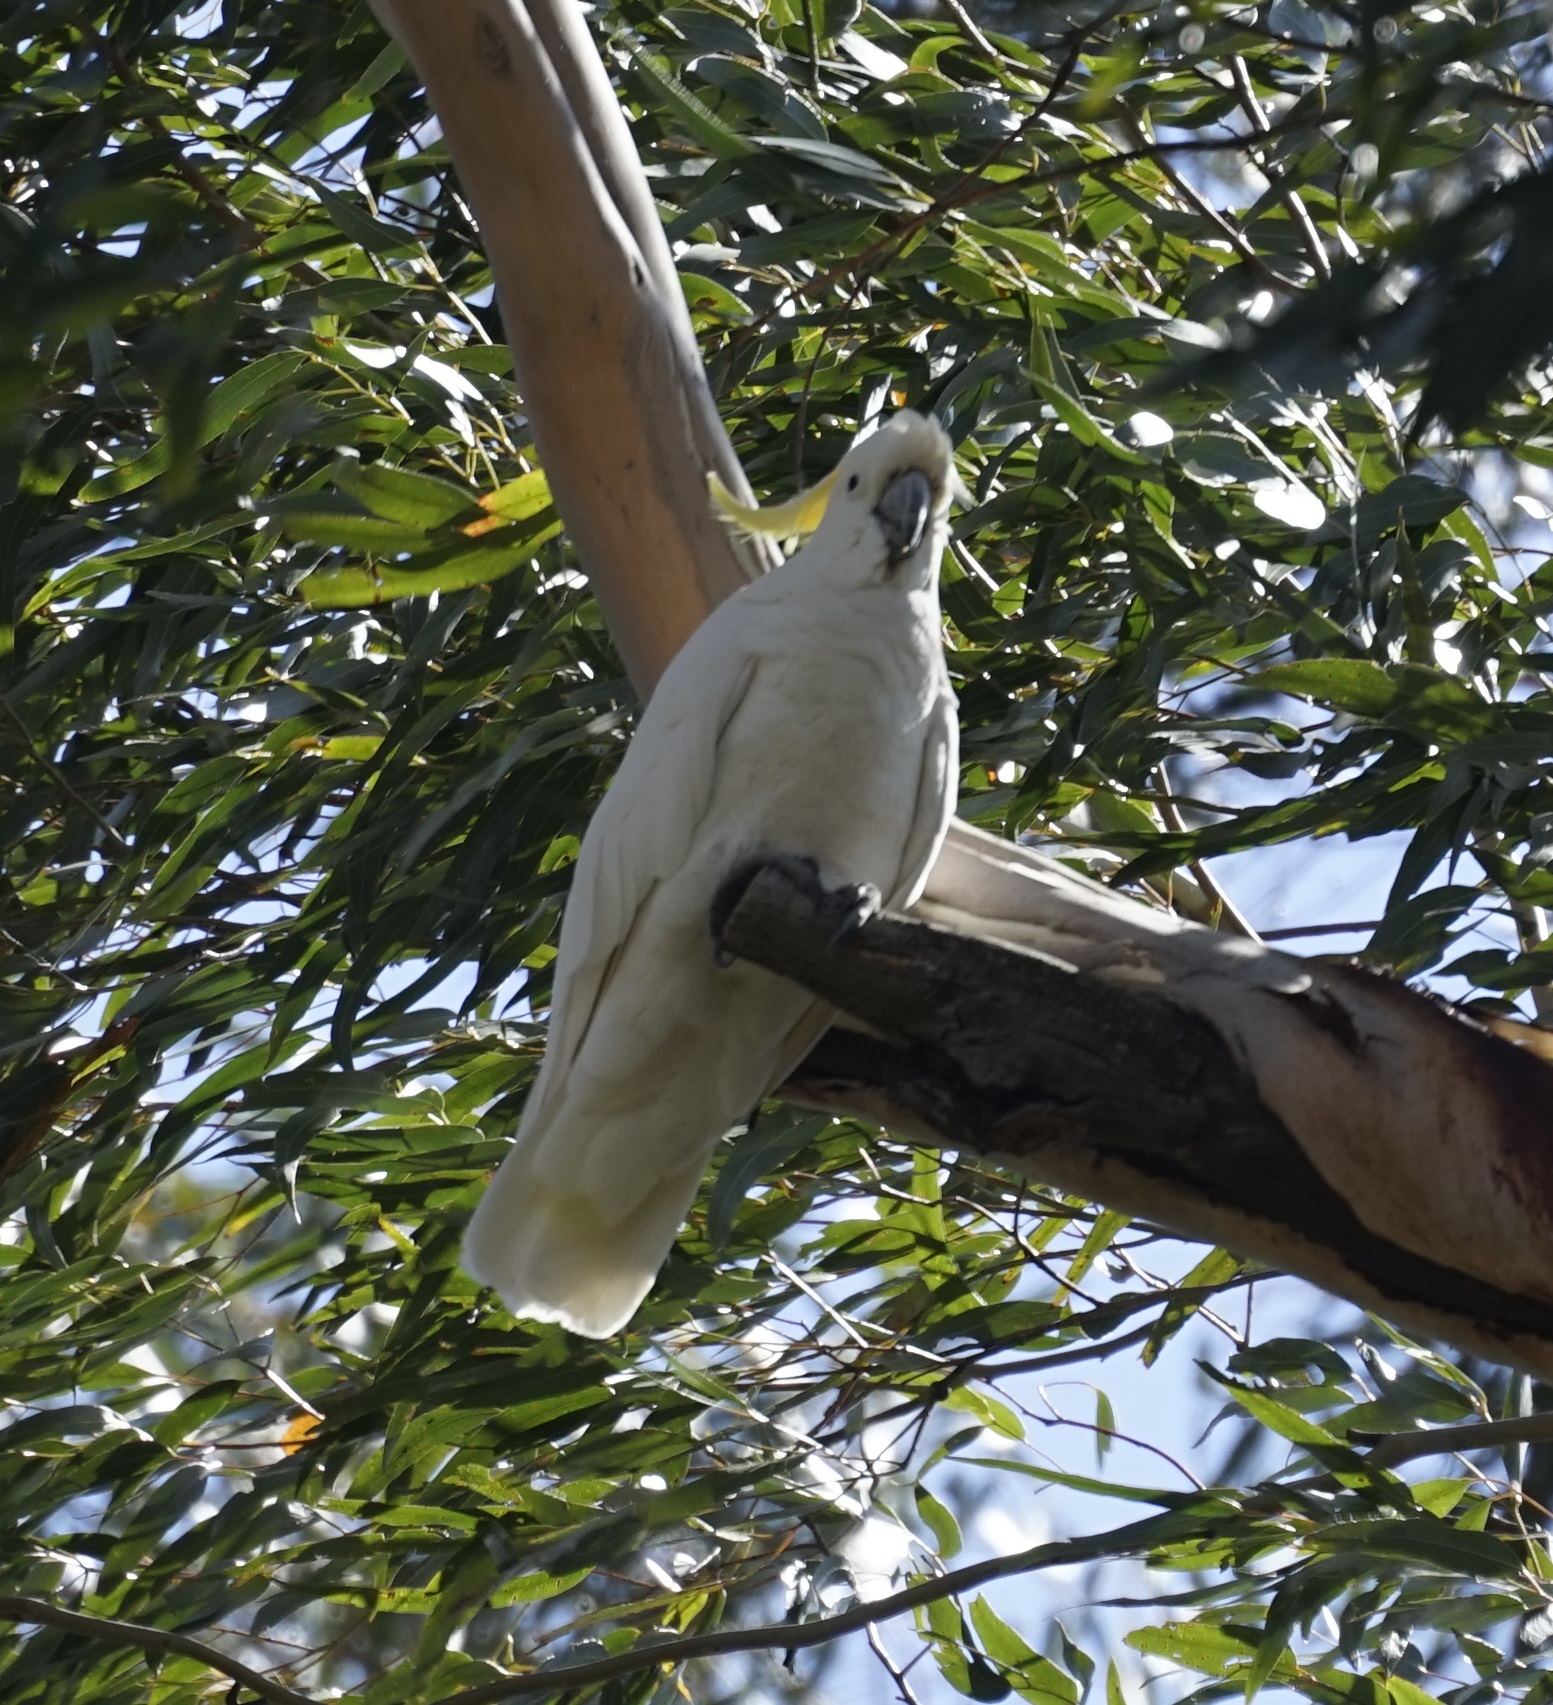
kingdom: Animalia
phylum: Chordata
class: Aves
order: Psittaciformes
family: Psittacidae
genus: Cacatua
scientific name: Cacatua galerita
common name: Sulphur-crested cockatoo
